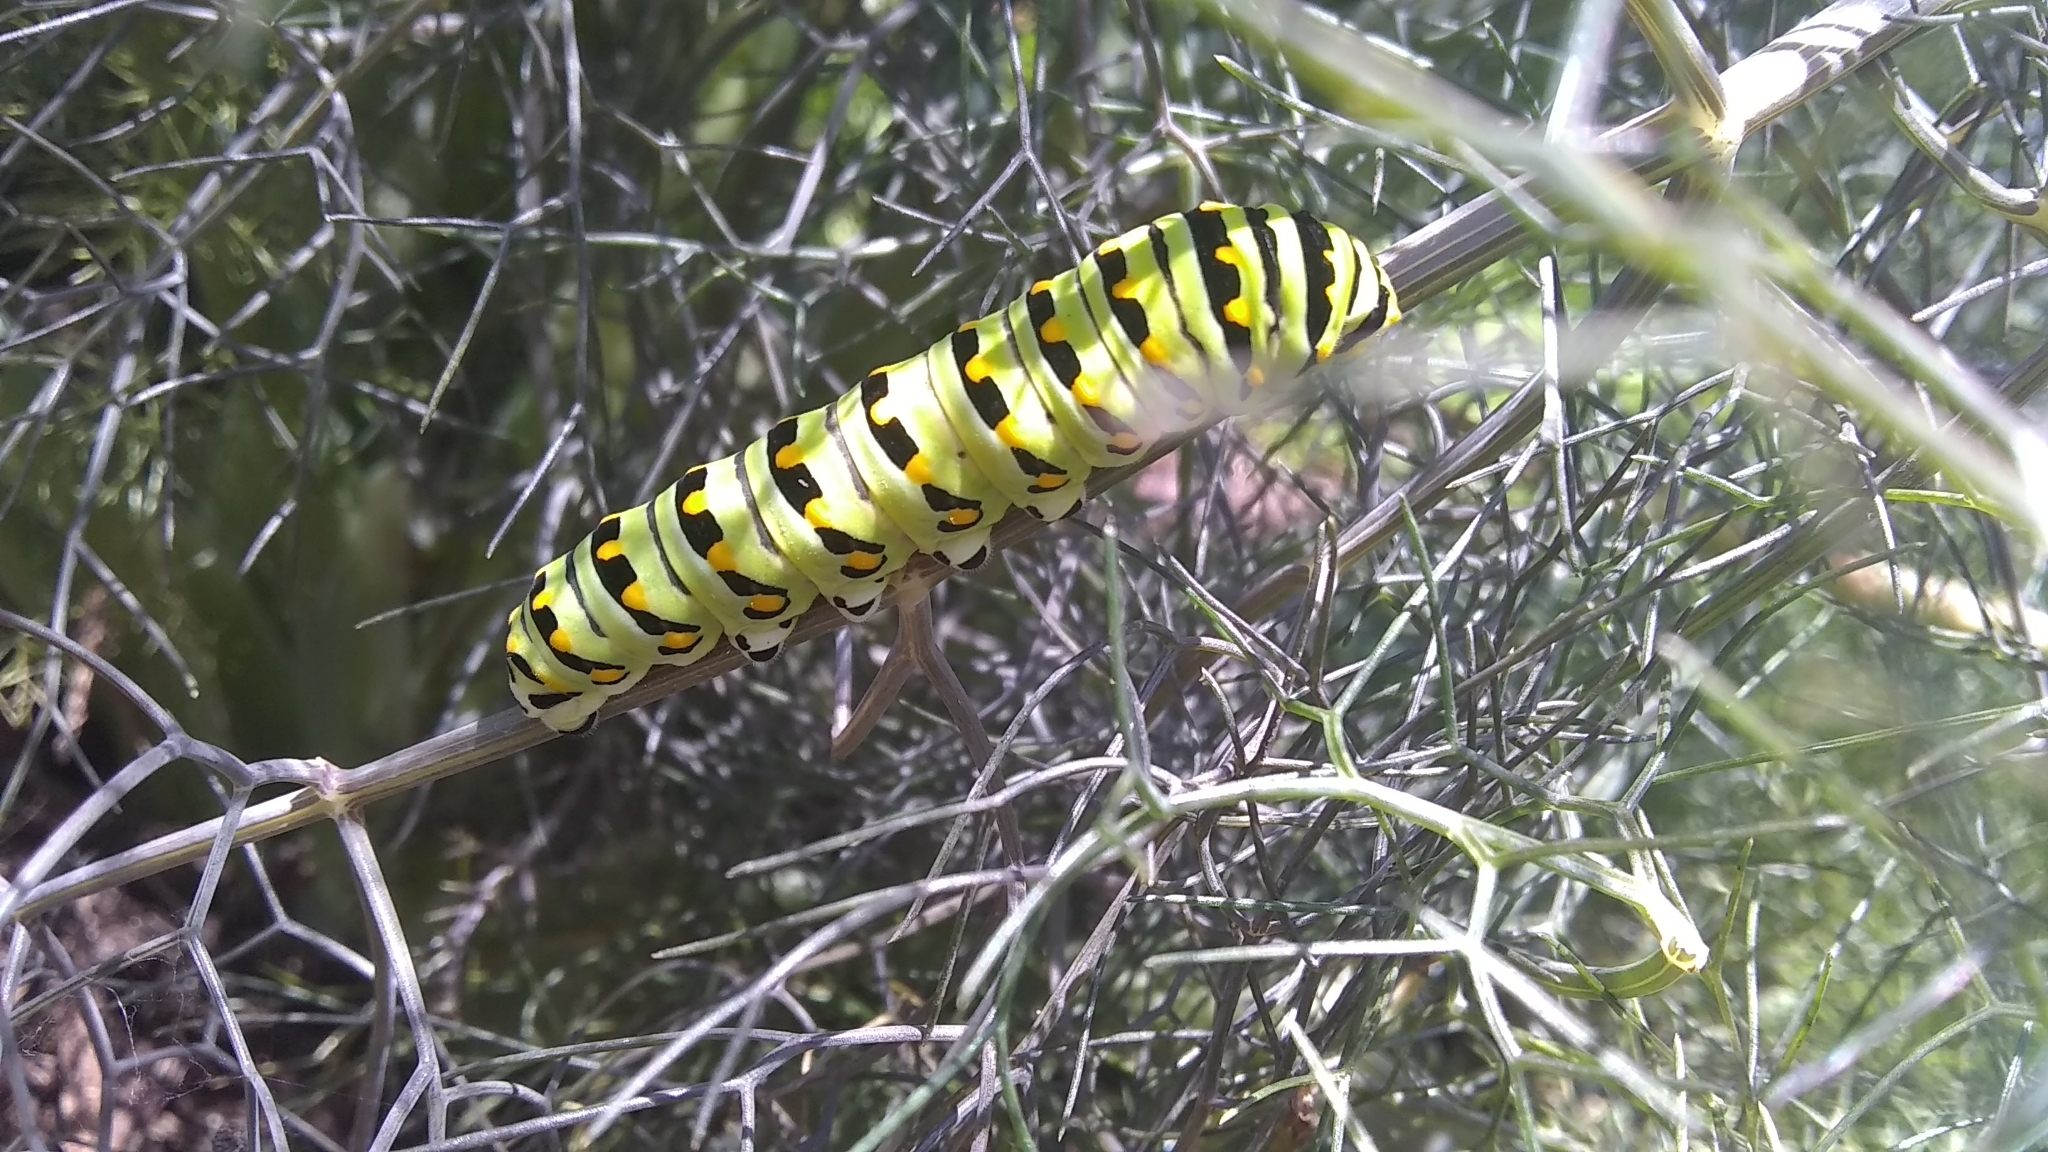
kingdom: Animalia
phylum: Arthropoda
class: Insecta
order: Lepidoptera
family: Papilionidae
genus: Papilio
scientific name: Papilio polyxenes
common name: Black swallowtail
